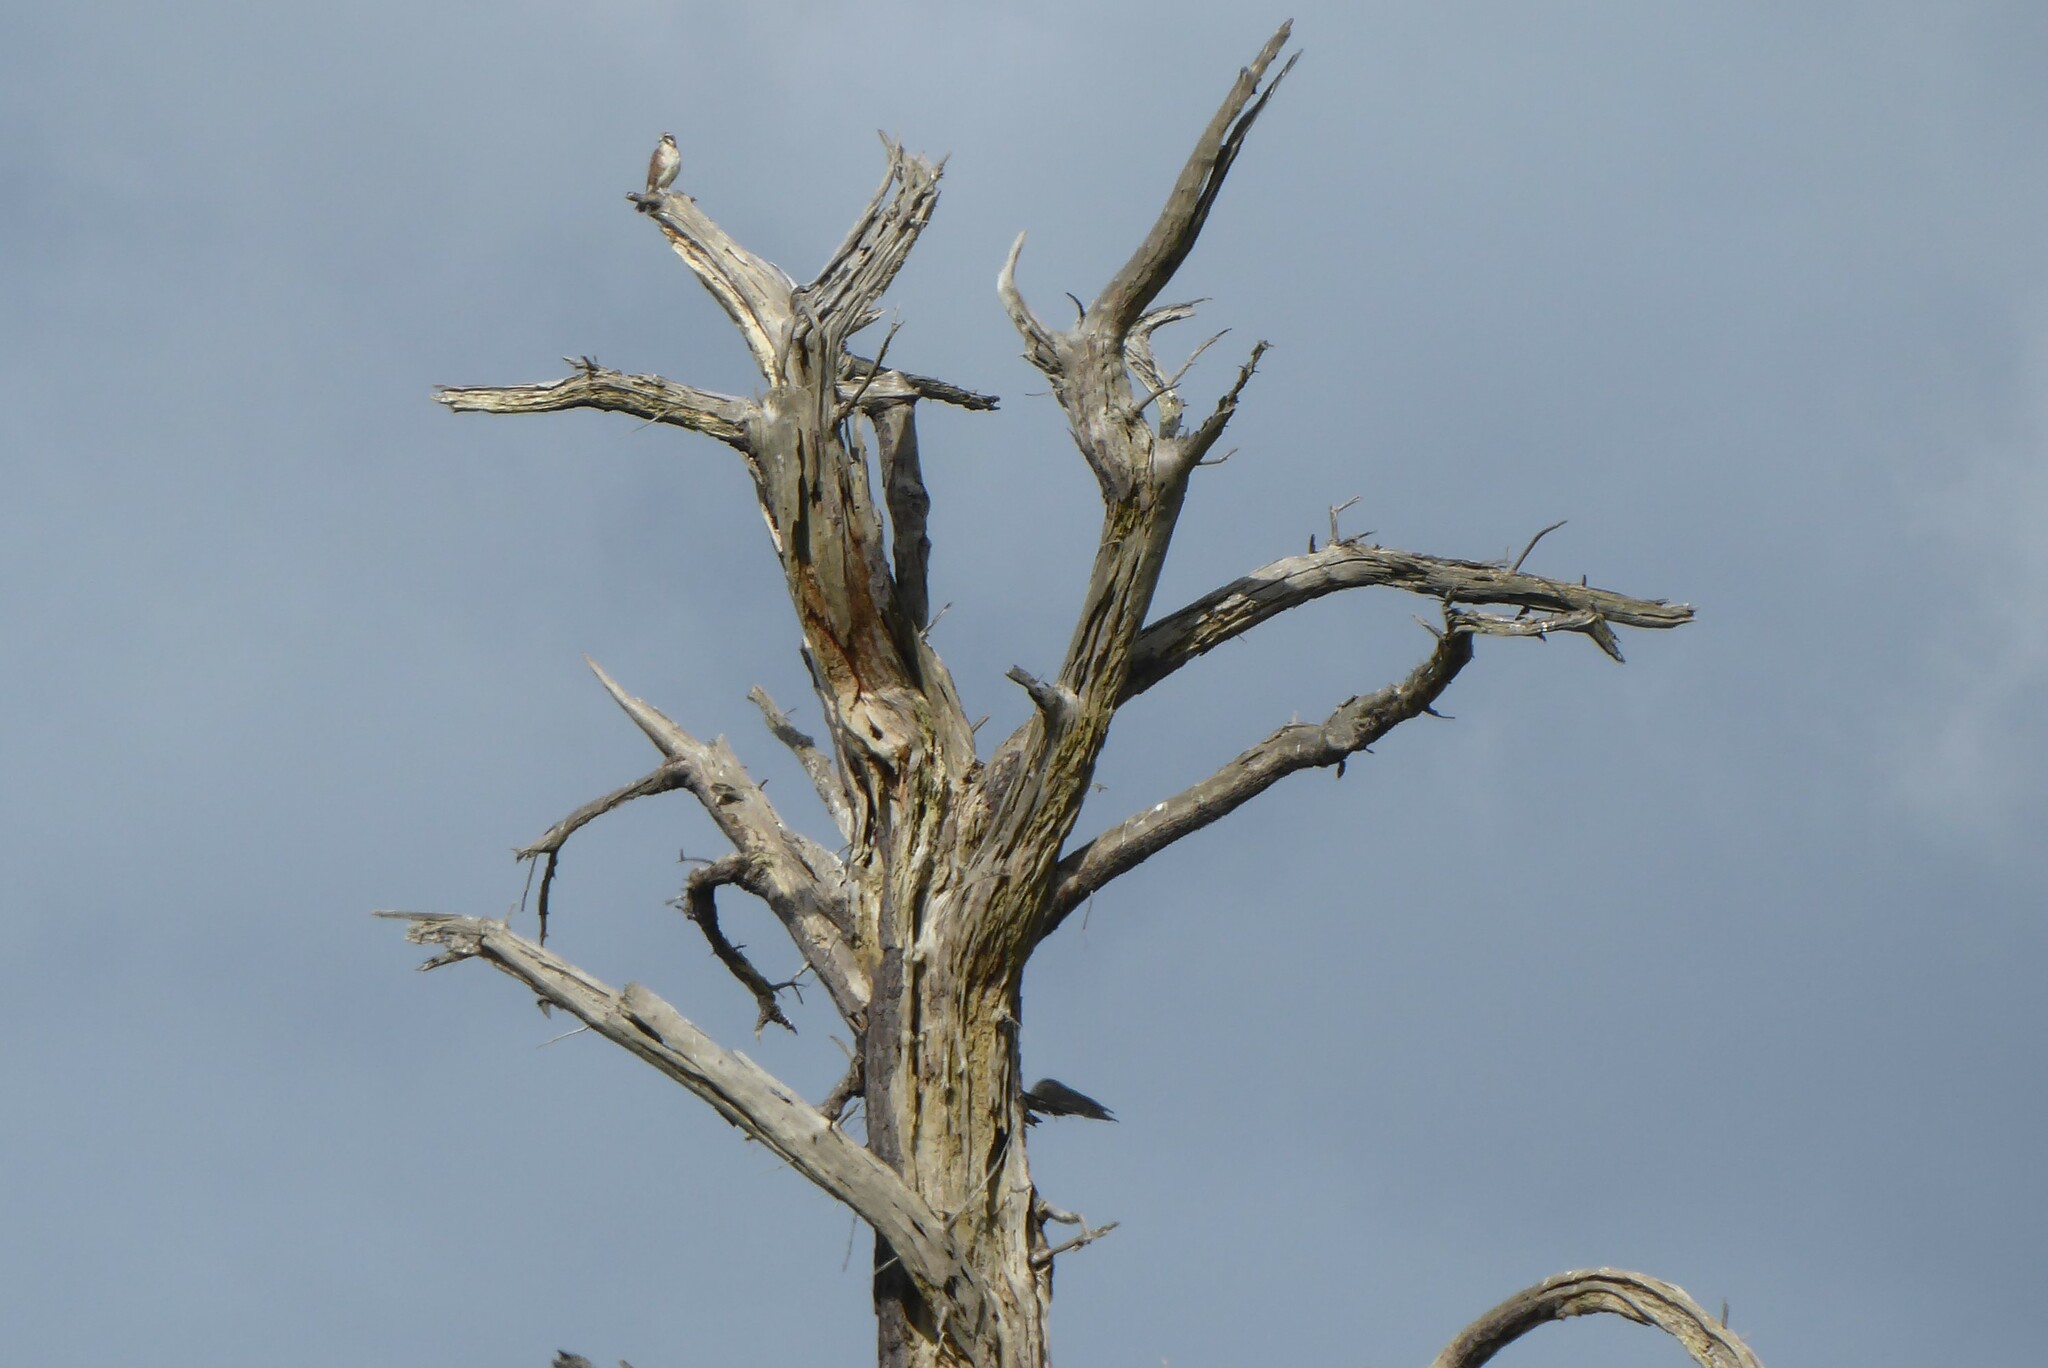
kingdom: Animalia
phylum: Chordata
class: Aves
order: Falconiformes
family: Falconidae
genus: Falco
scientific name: Falco berigora
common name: Brown falcon
